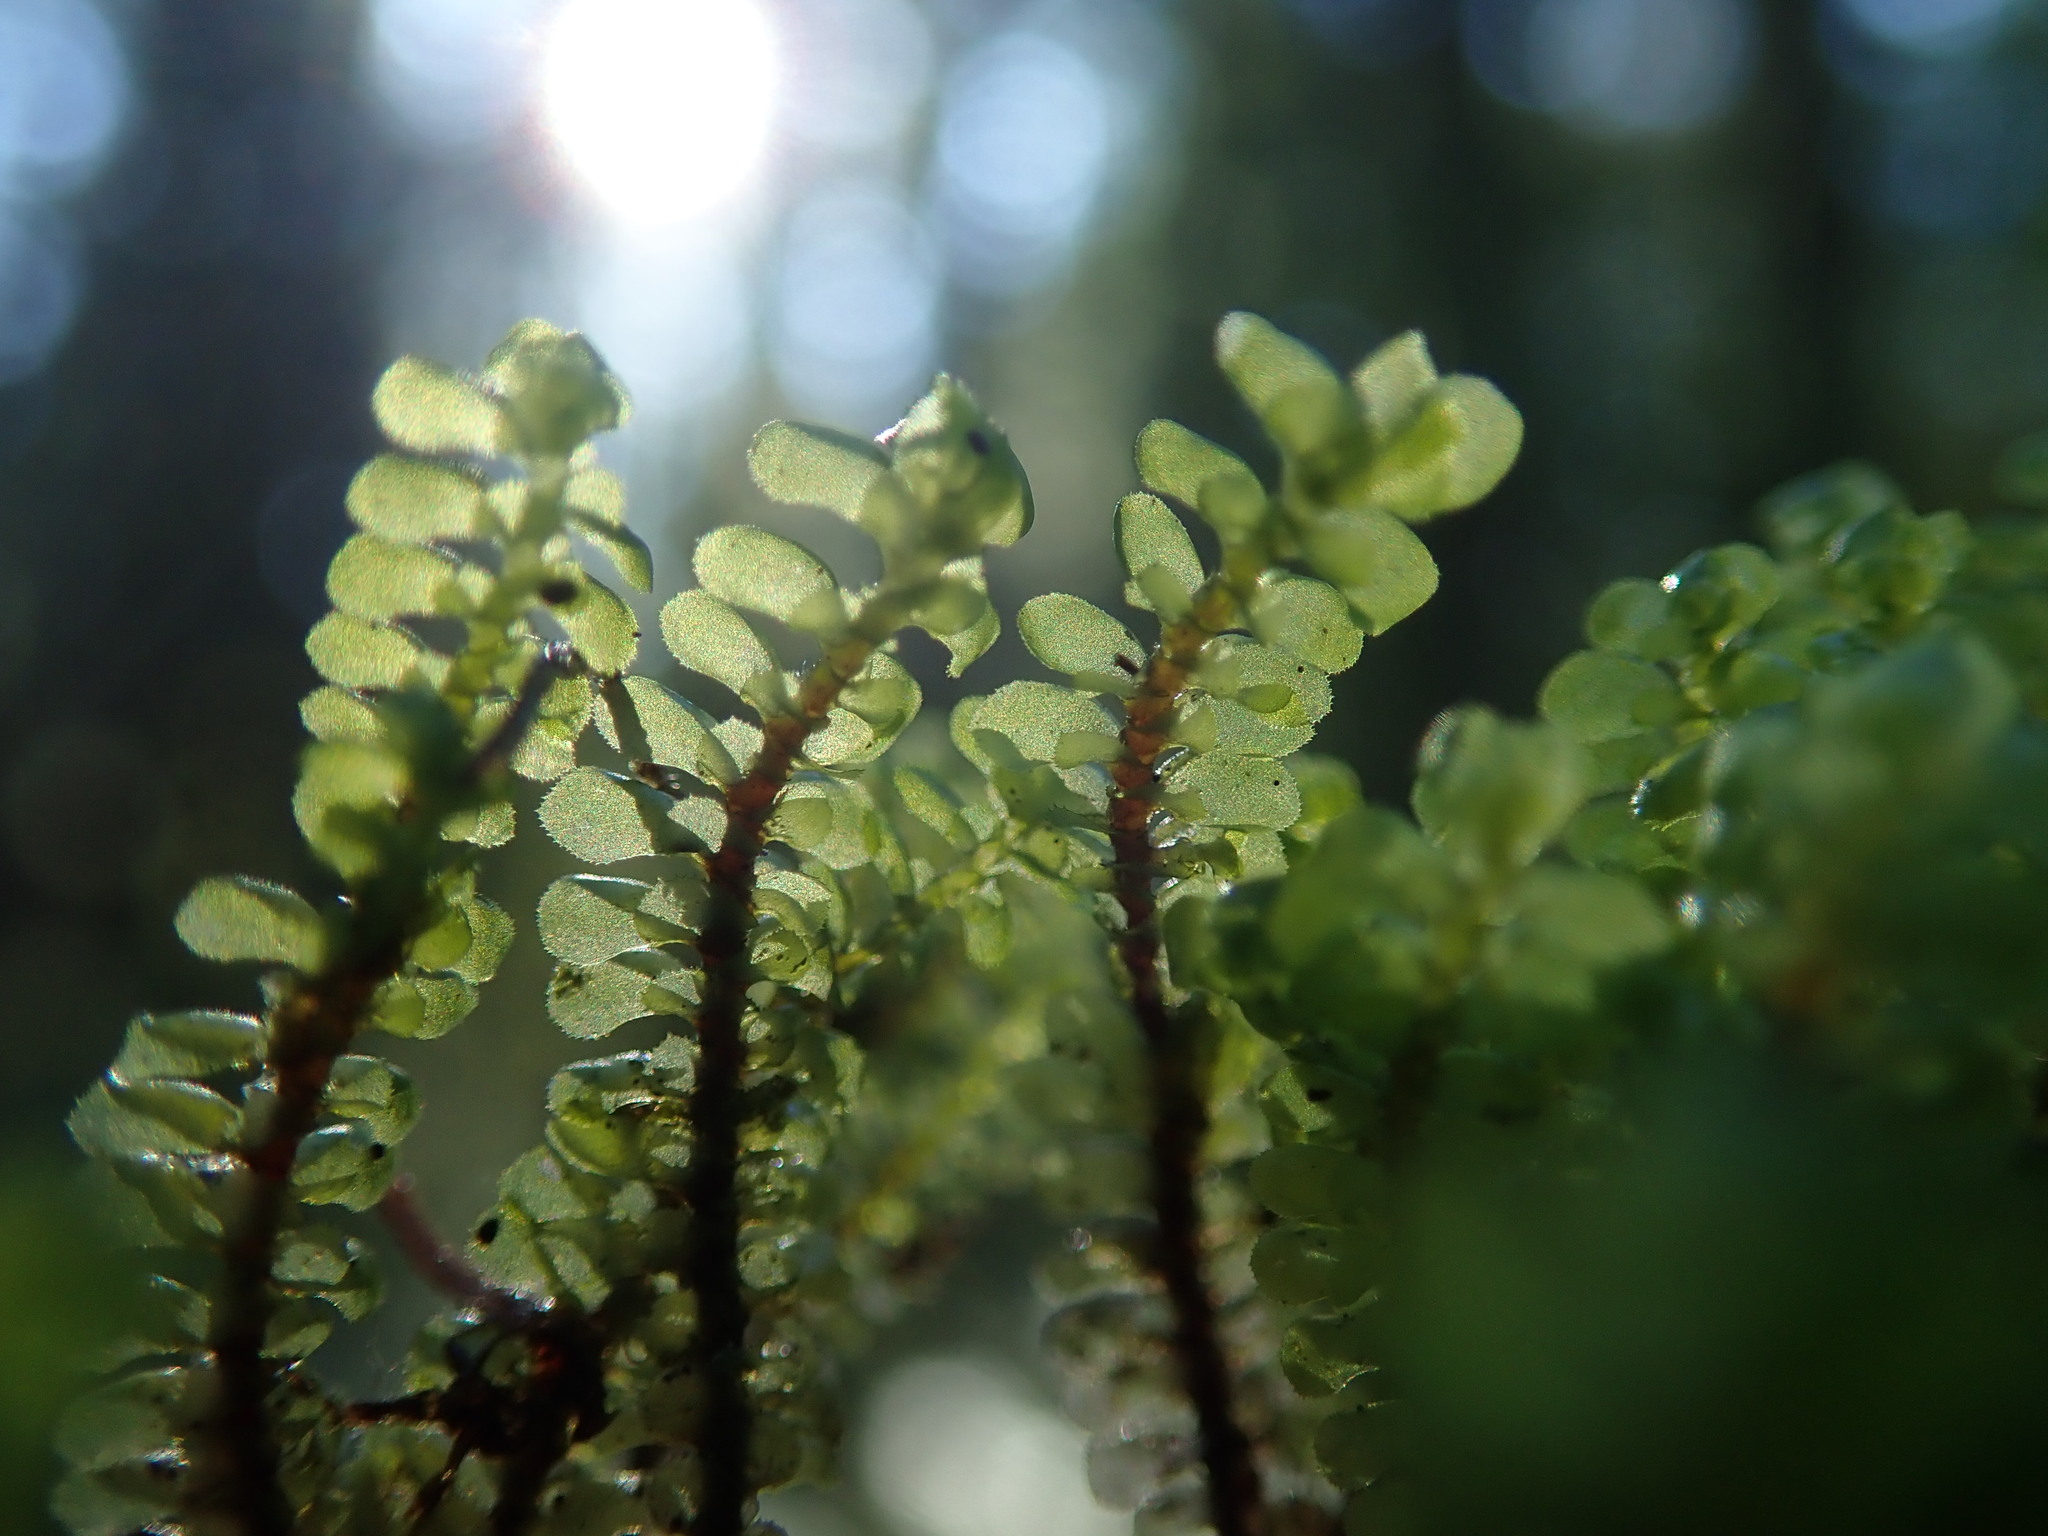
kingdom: Plantae
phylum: Marchantiophyta
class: Jungermanniopsida
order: Jungermanniales
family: Scapaniaceae
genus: Scapania
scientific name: Scapania bolanderi
